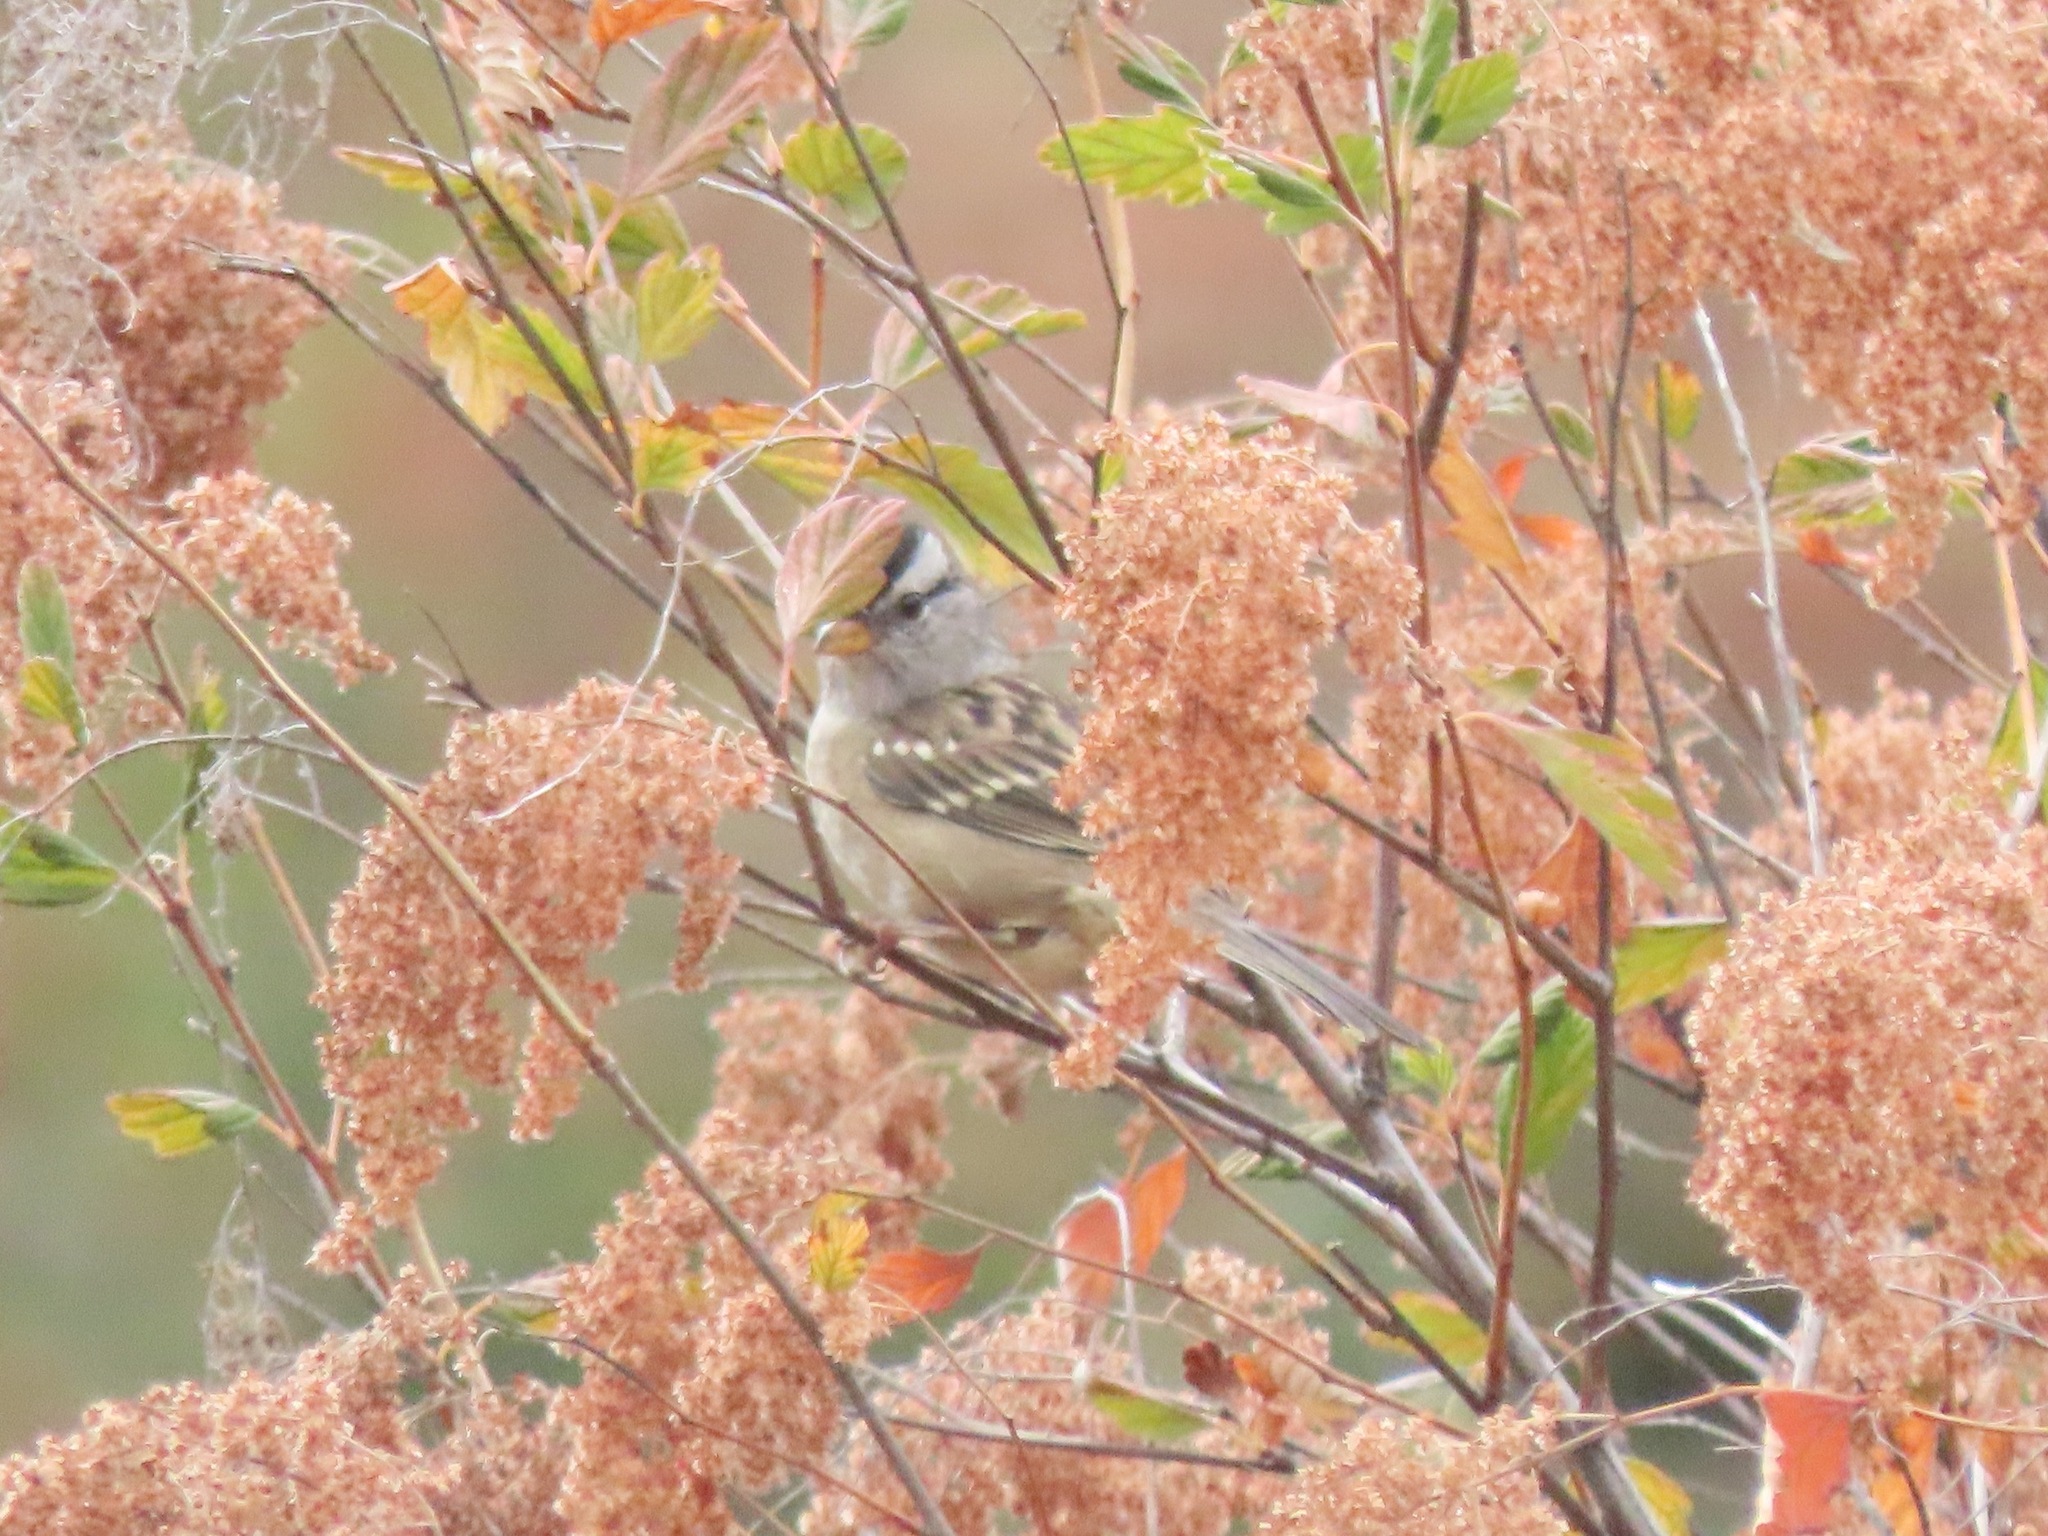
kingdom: Animalia
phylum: Chordata
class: Aves
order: Passeriformes
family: Passerellidae
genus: Zonotrichia
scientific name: Zonotrichia leucophrys
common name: White-crowned sparrow
